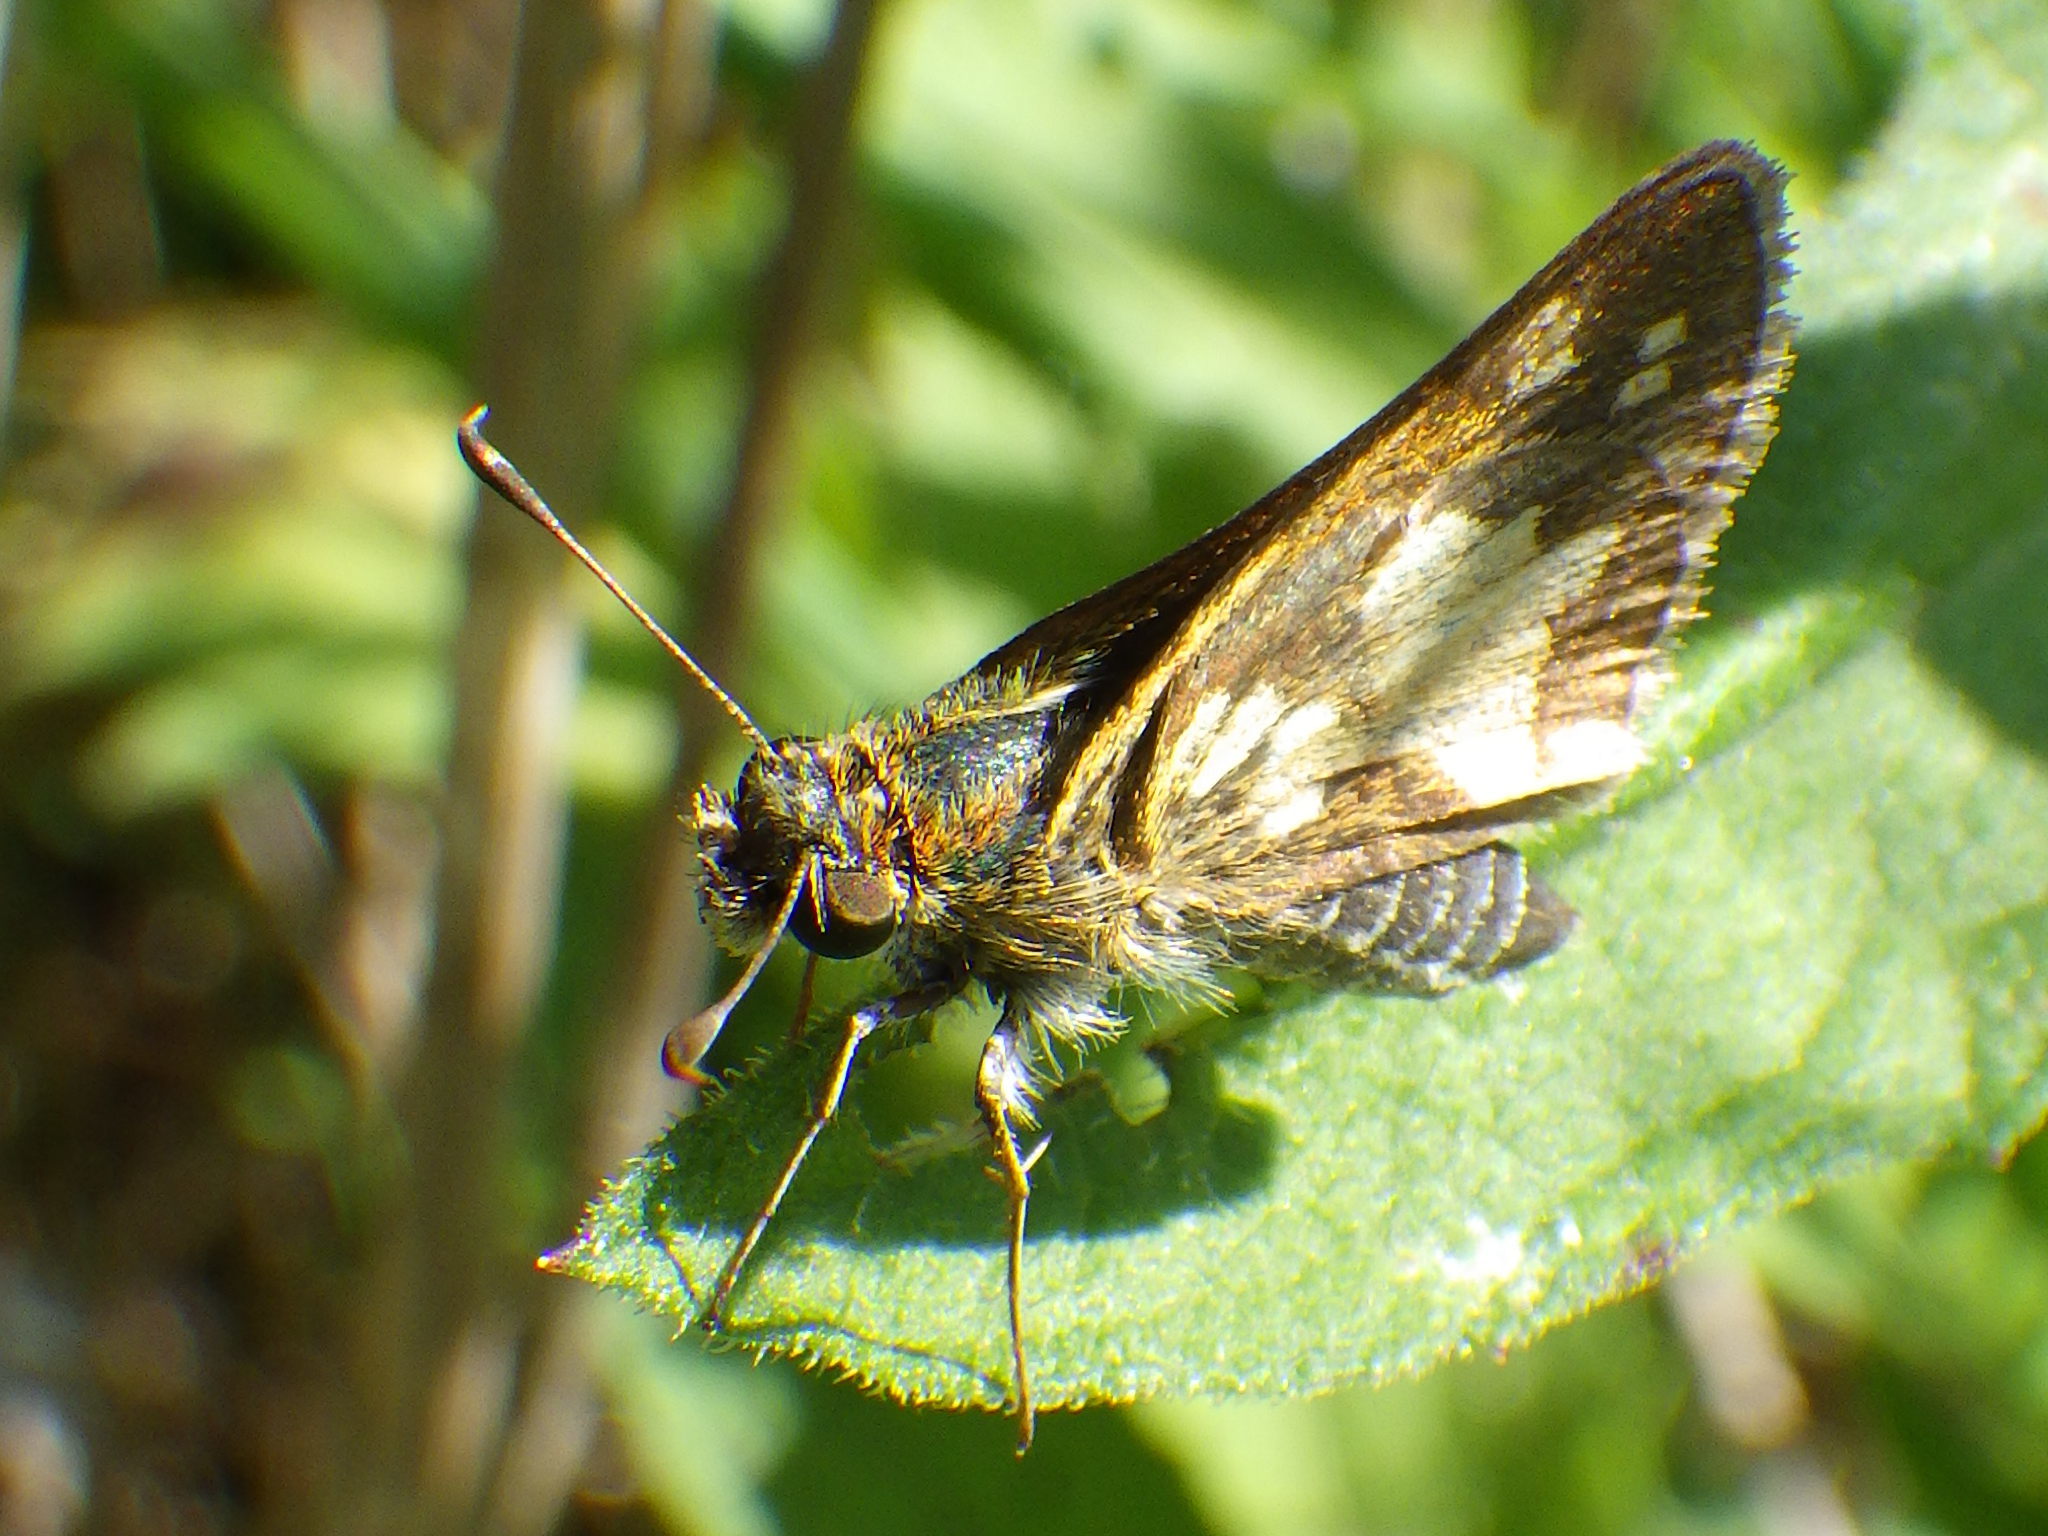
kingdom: Animalia
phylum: Arthropoda
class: Insecta
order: Lepidoptera
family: Hesperiidae
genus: Polites
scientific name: Polites coras
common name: Peck's skipper
